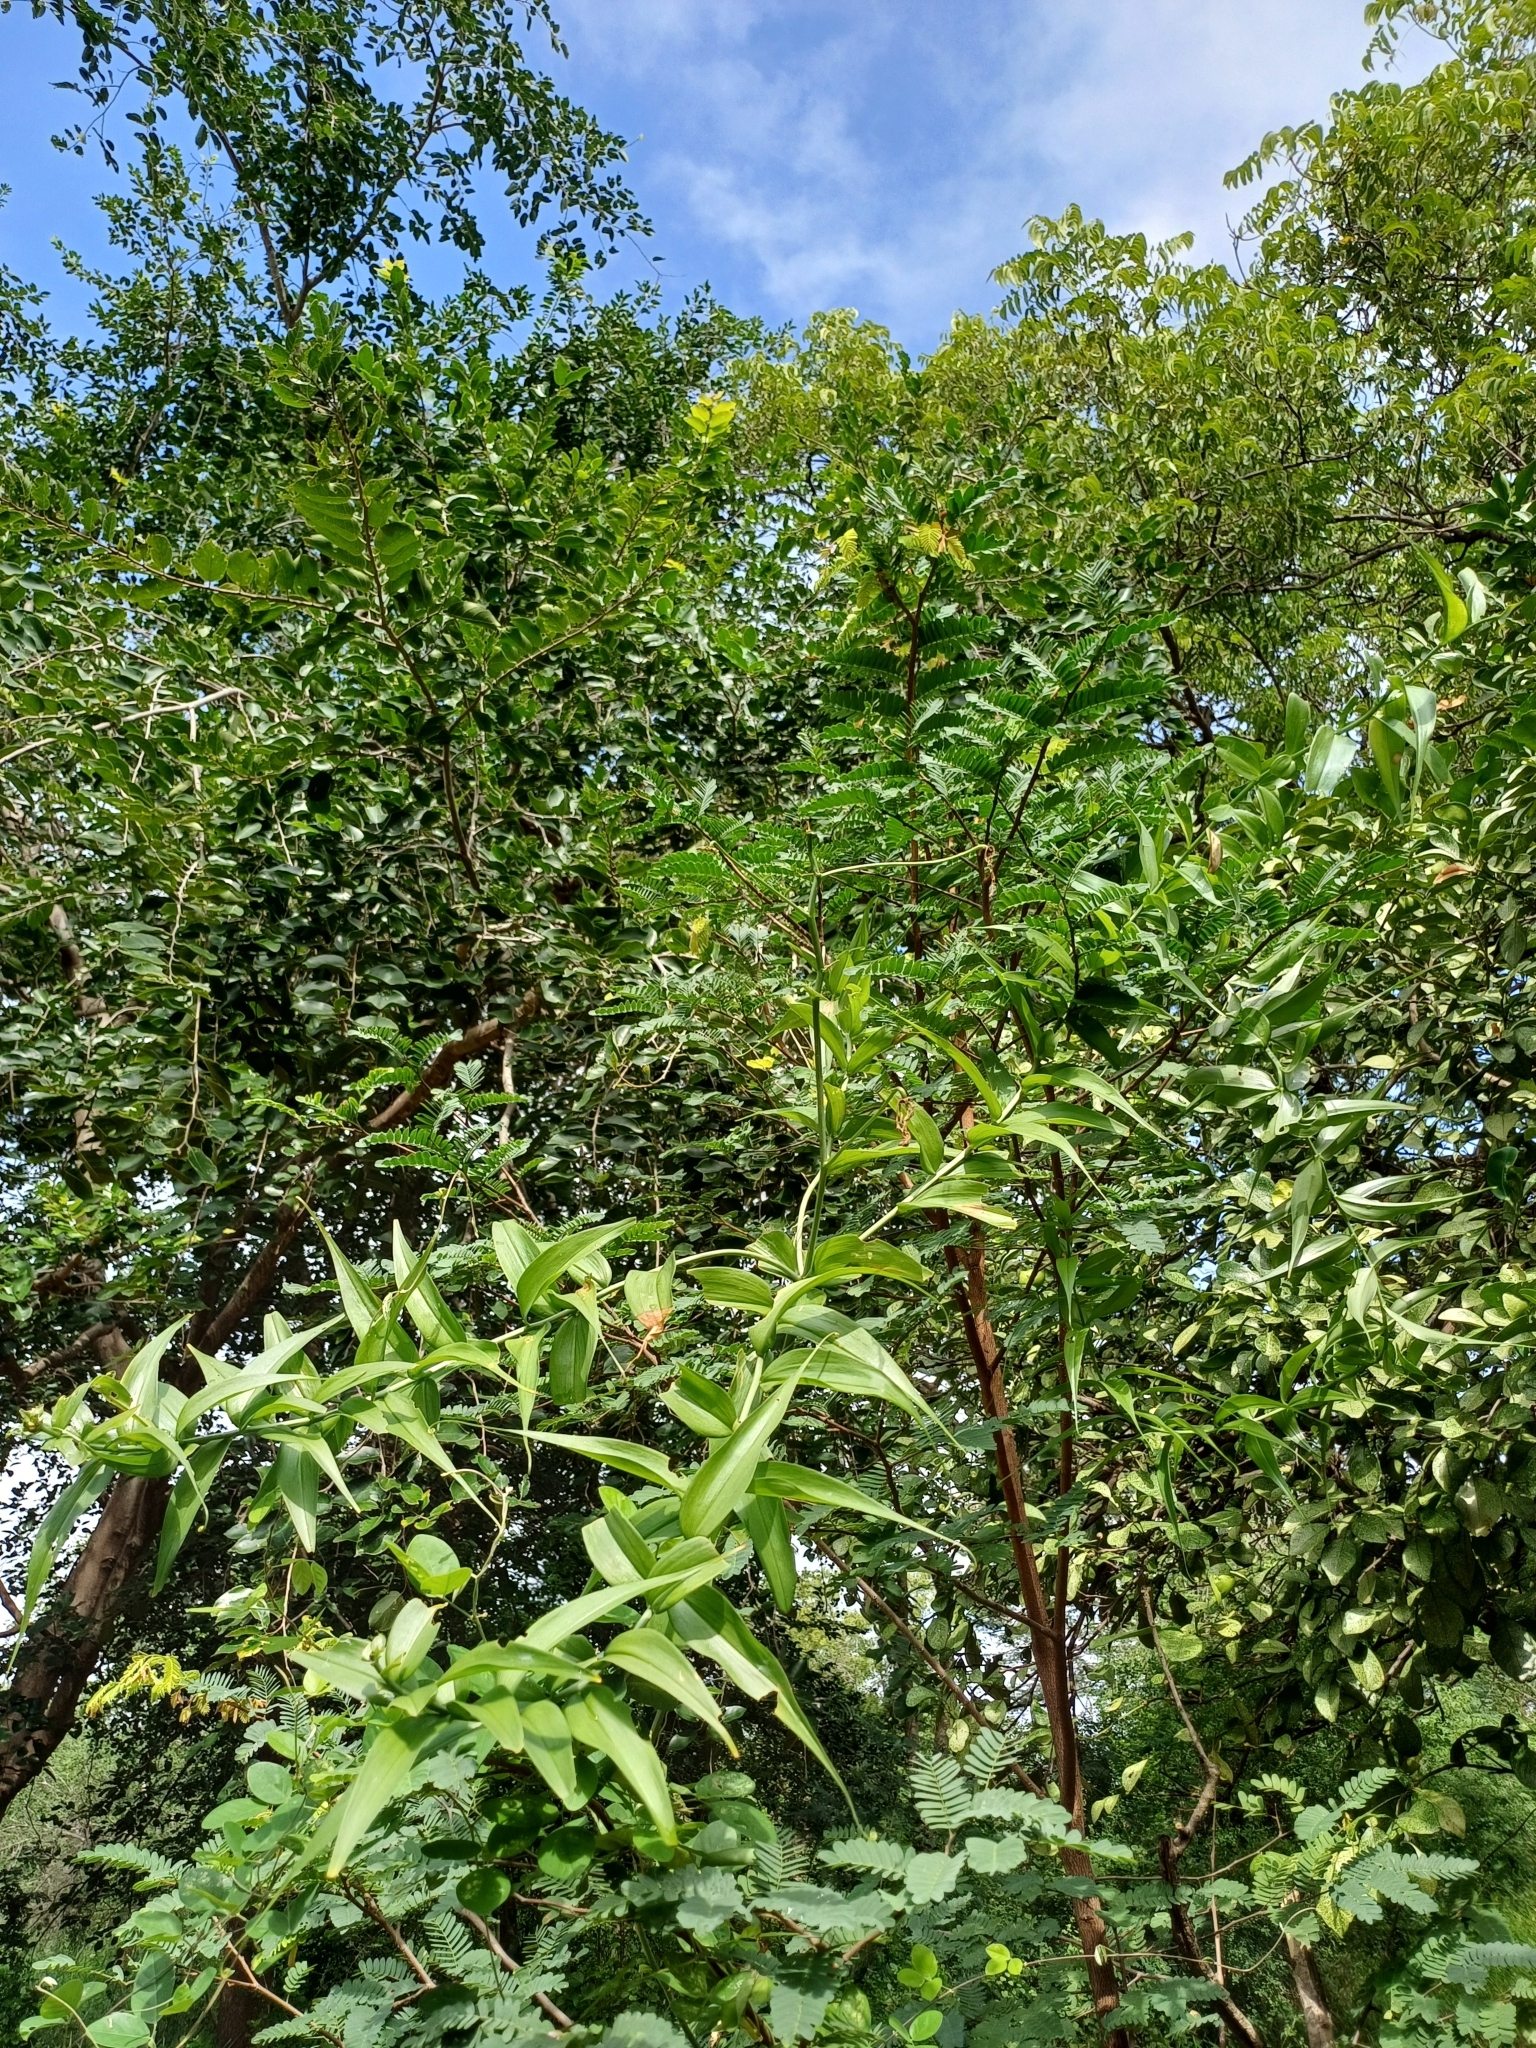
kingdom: Plantae
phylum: Tracheophyta
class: Liliopsida
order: Liliales
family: Colchicaceae
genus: Gloriosa
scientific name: Gloriosa superba
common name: Flame lily
